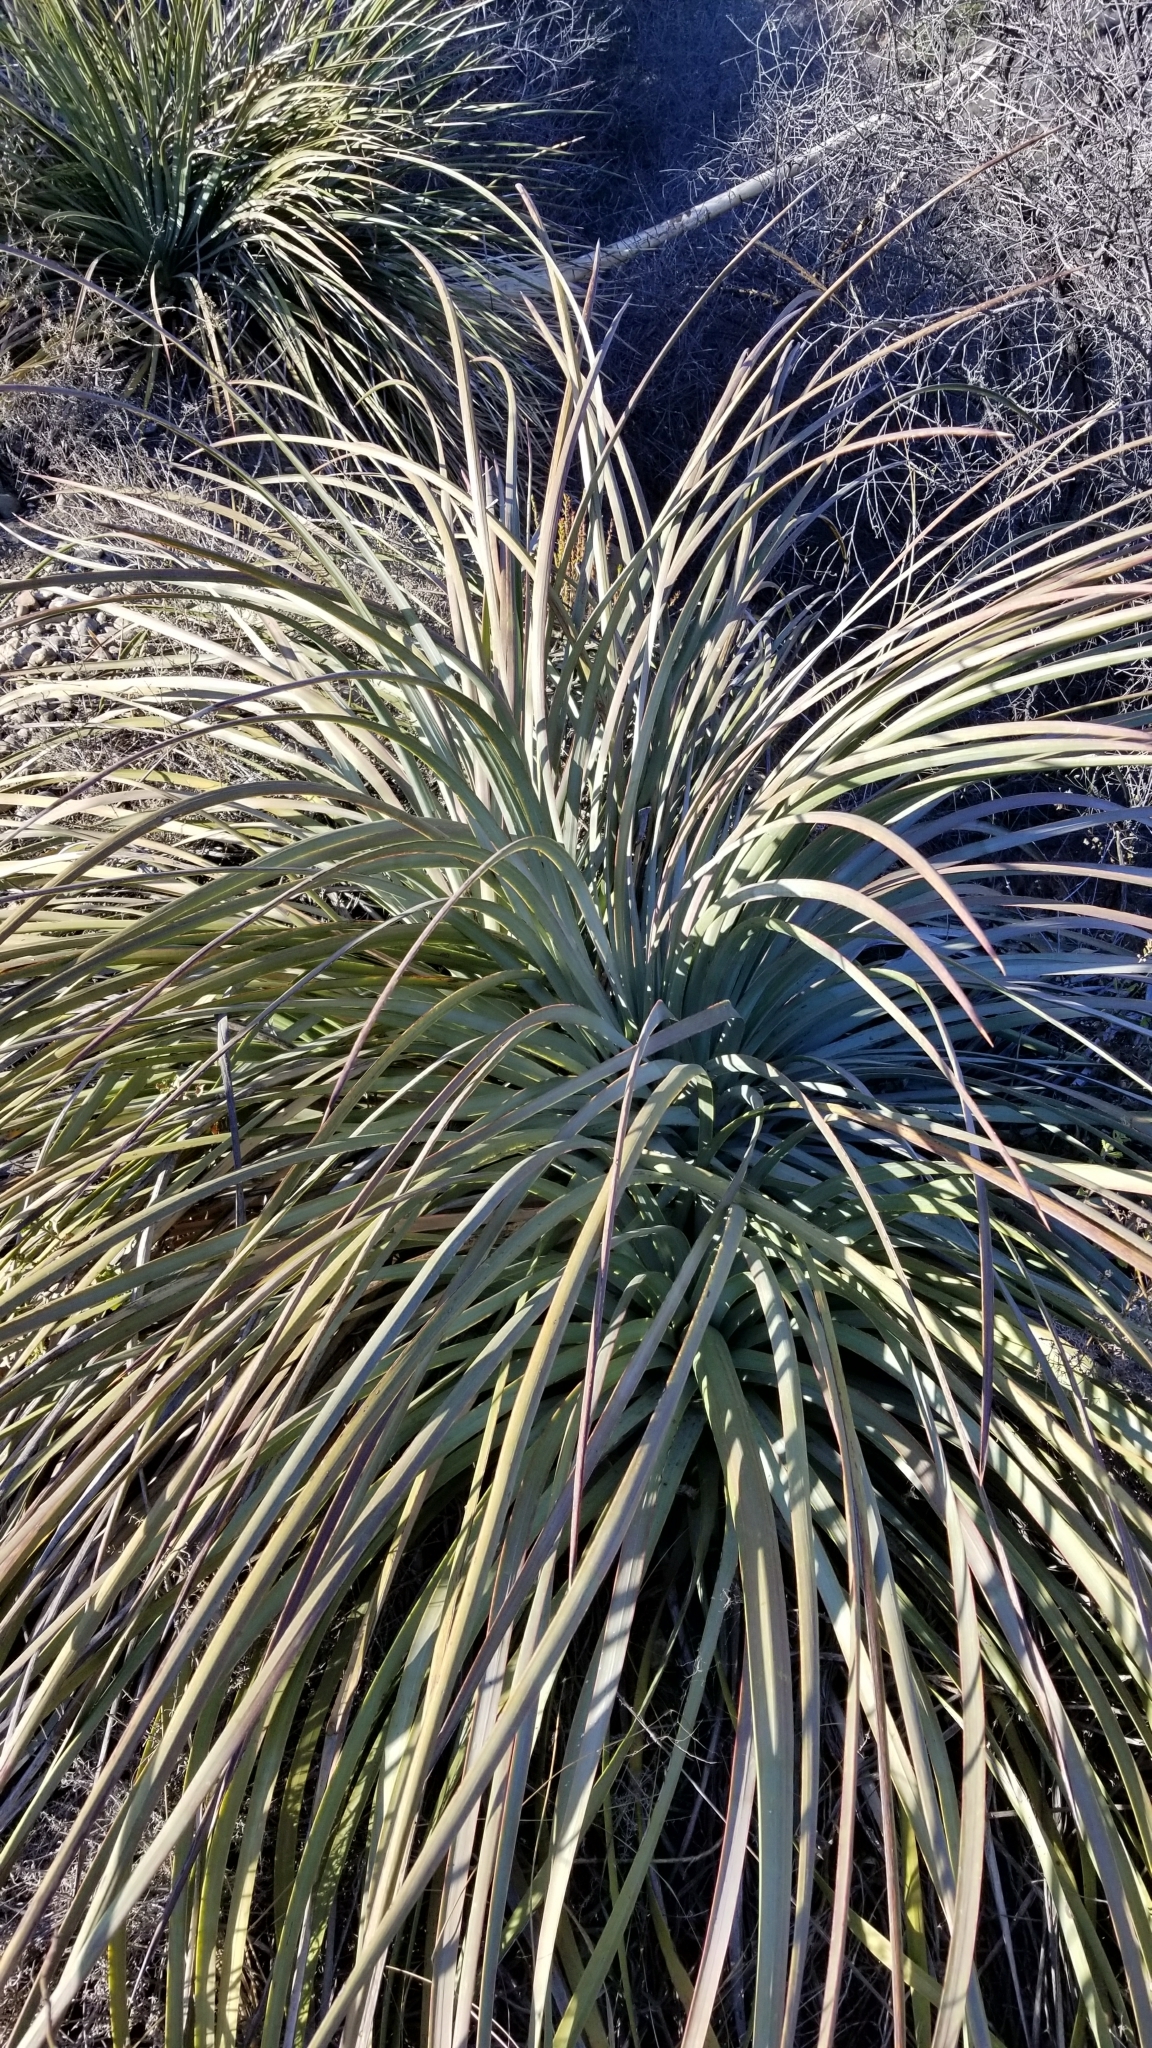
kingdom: Plantae
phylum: Tracheophyta
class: Liliopsida
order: Asparagales
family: Asparagaceae
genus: Hesperoyucca
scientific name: Hesperoyucca whipplei
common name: Our lord's-candle
